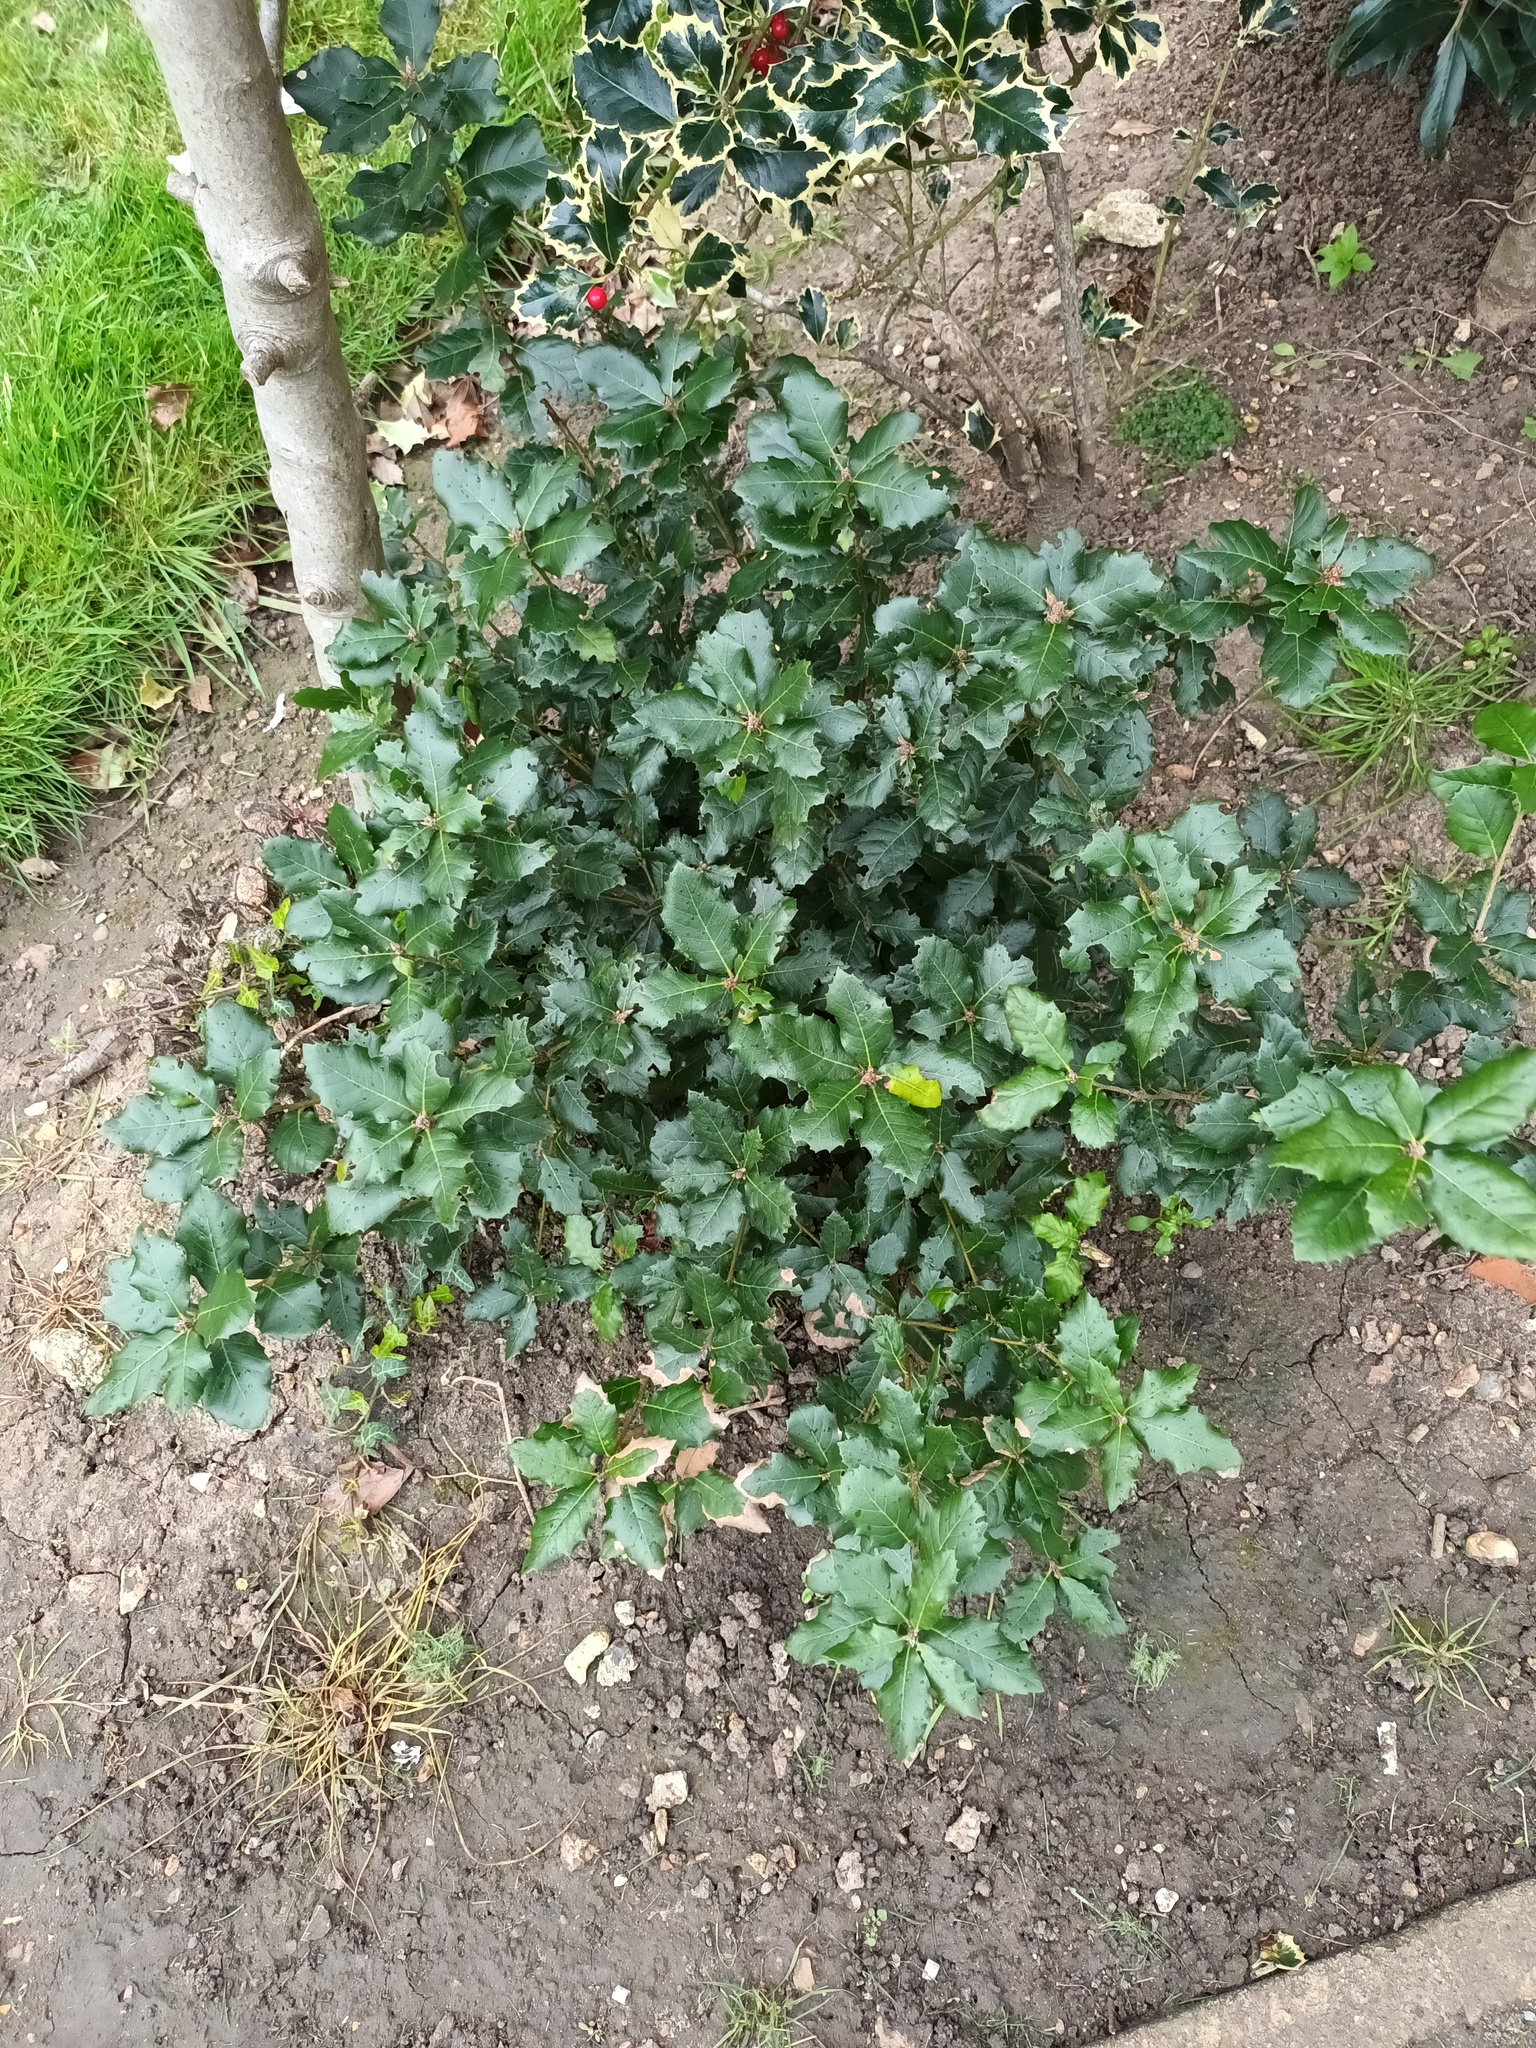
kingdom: Plantae
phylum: Tracheophyta
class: Magnoliopsida
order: Aquifoliales
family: Aquifoliaceae
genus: Ilex
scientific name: Ilex aquifolium
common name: English holly
